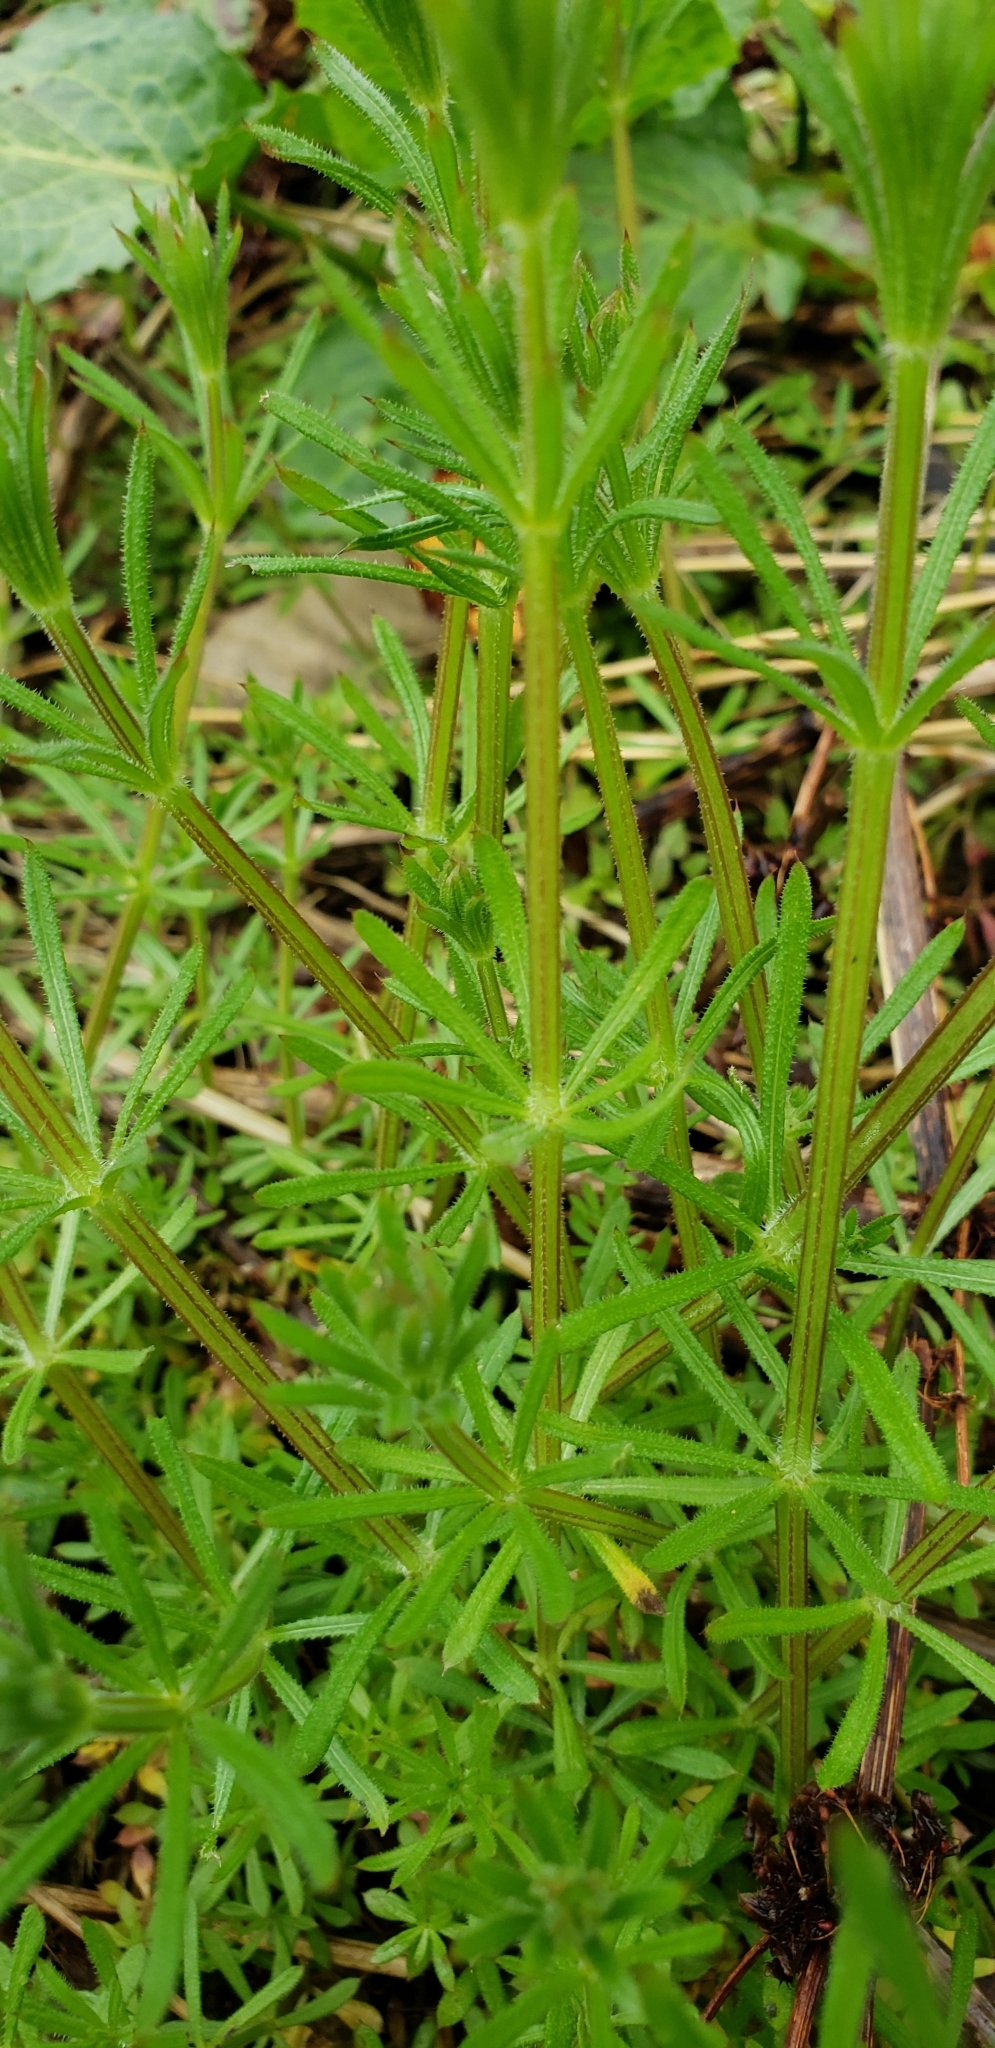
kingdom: Plantae
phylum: Tracheophyta
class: Magnoliopsida
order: Gentianales
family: Rubiaceae
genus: Galium
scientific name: Galium aparine
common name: Cleavers
